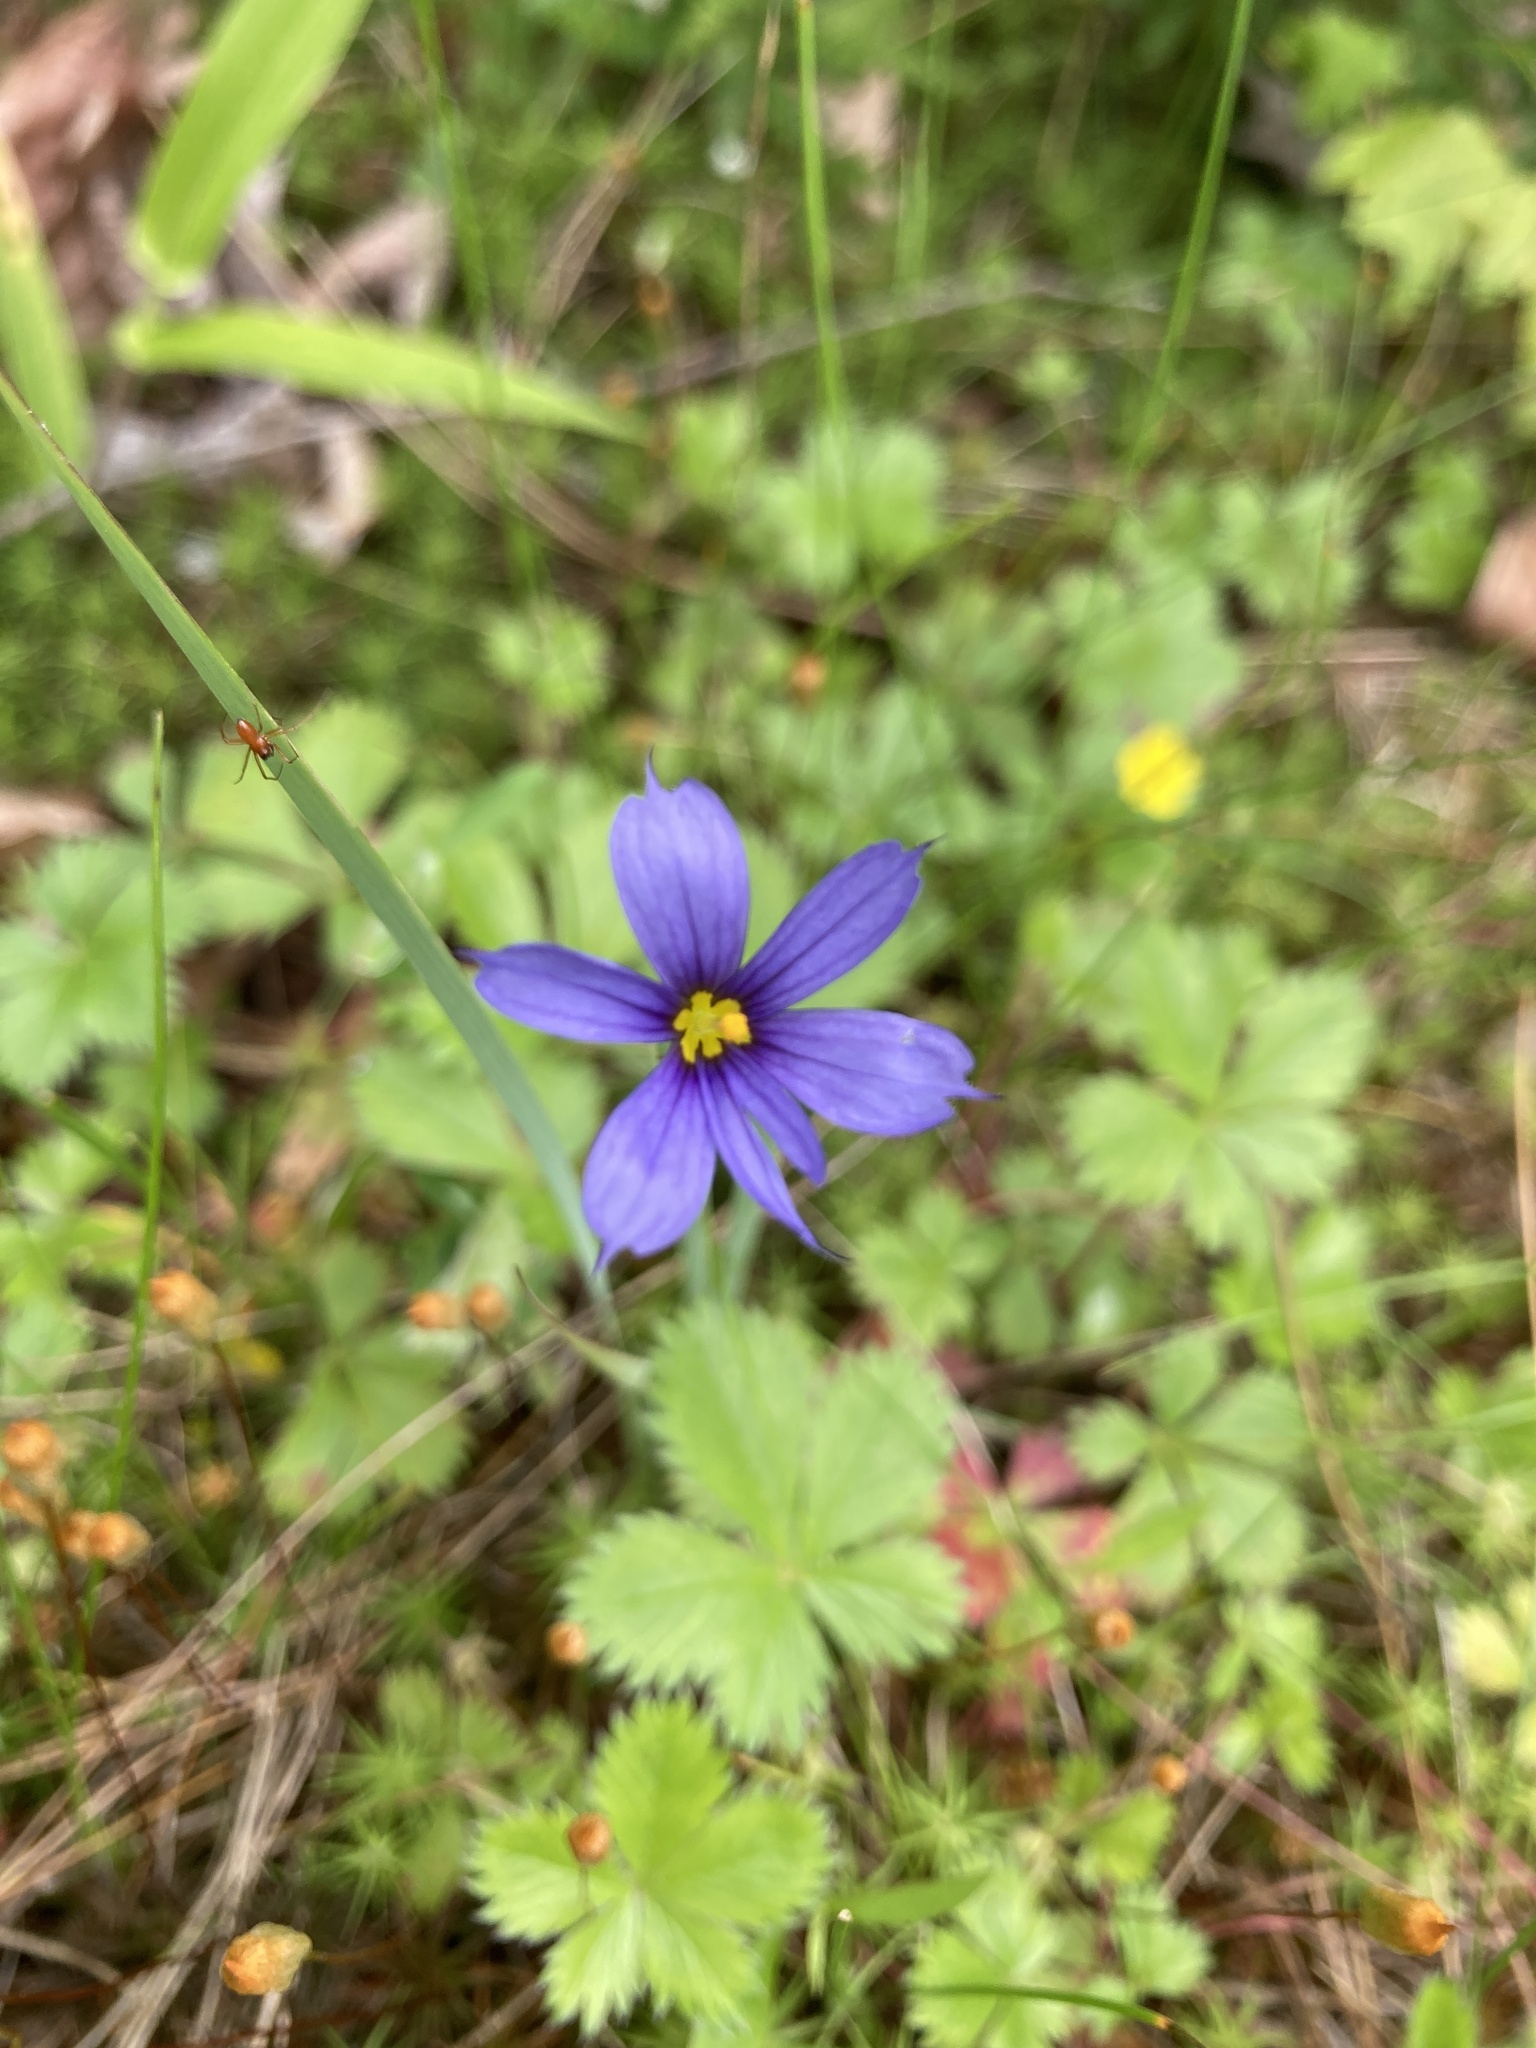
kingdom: Plantae
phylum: Tracheophyta
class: Liliopsida
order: Asparagales
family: Iridaceae
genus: Sisyrinchium
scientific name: Sisyrinchium montanum
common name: American blue-eyed-grass
